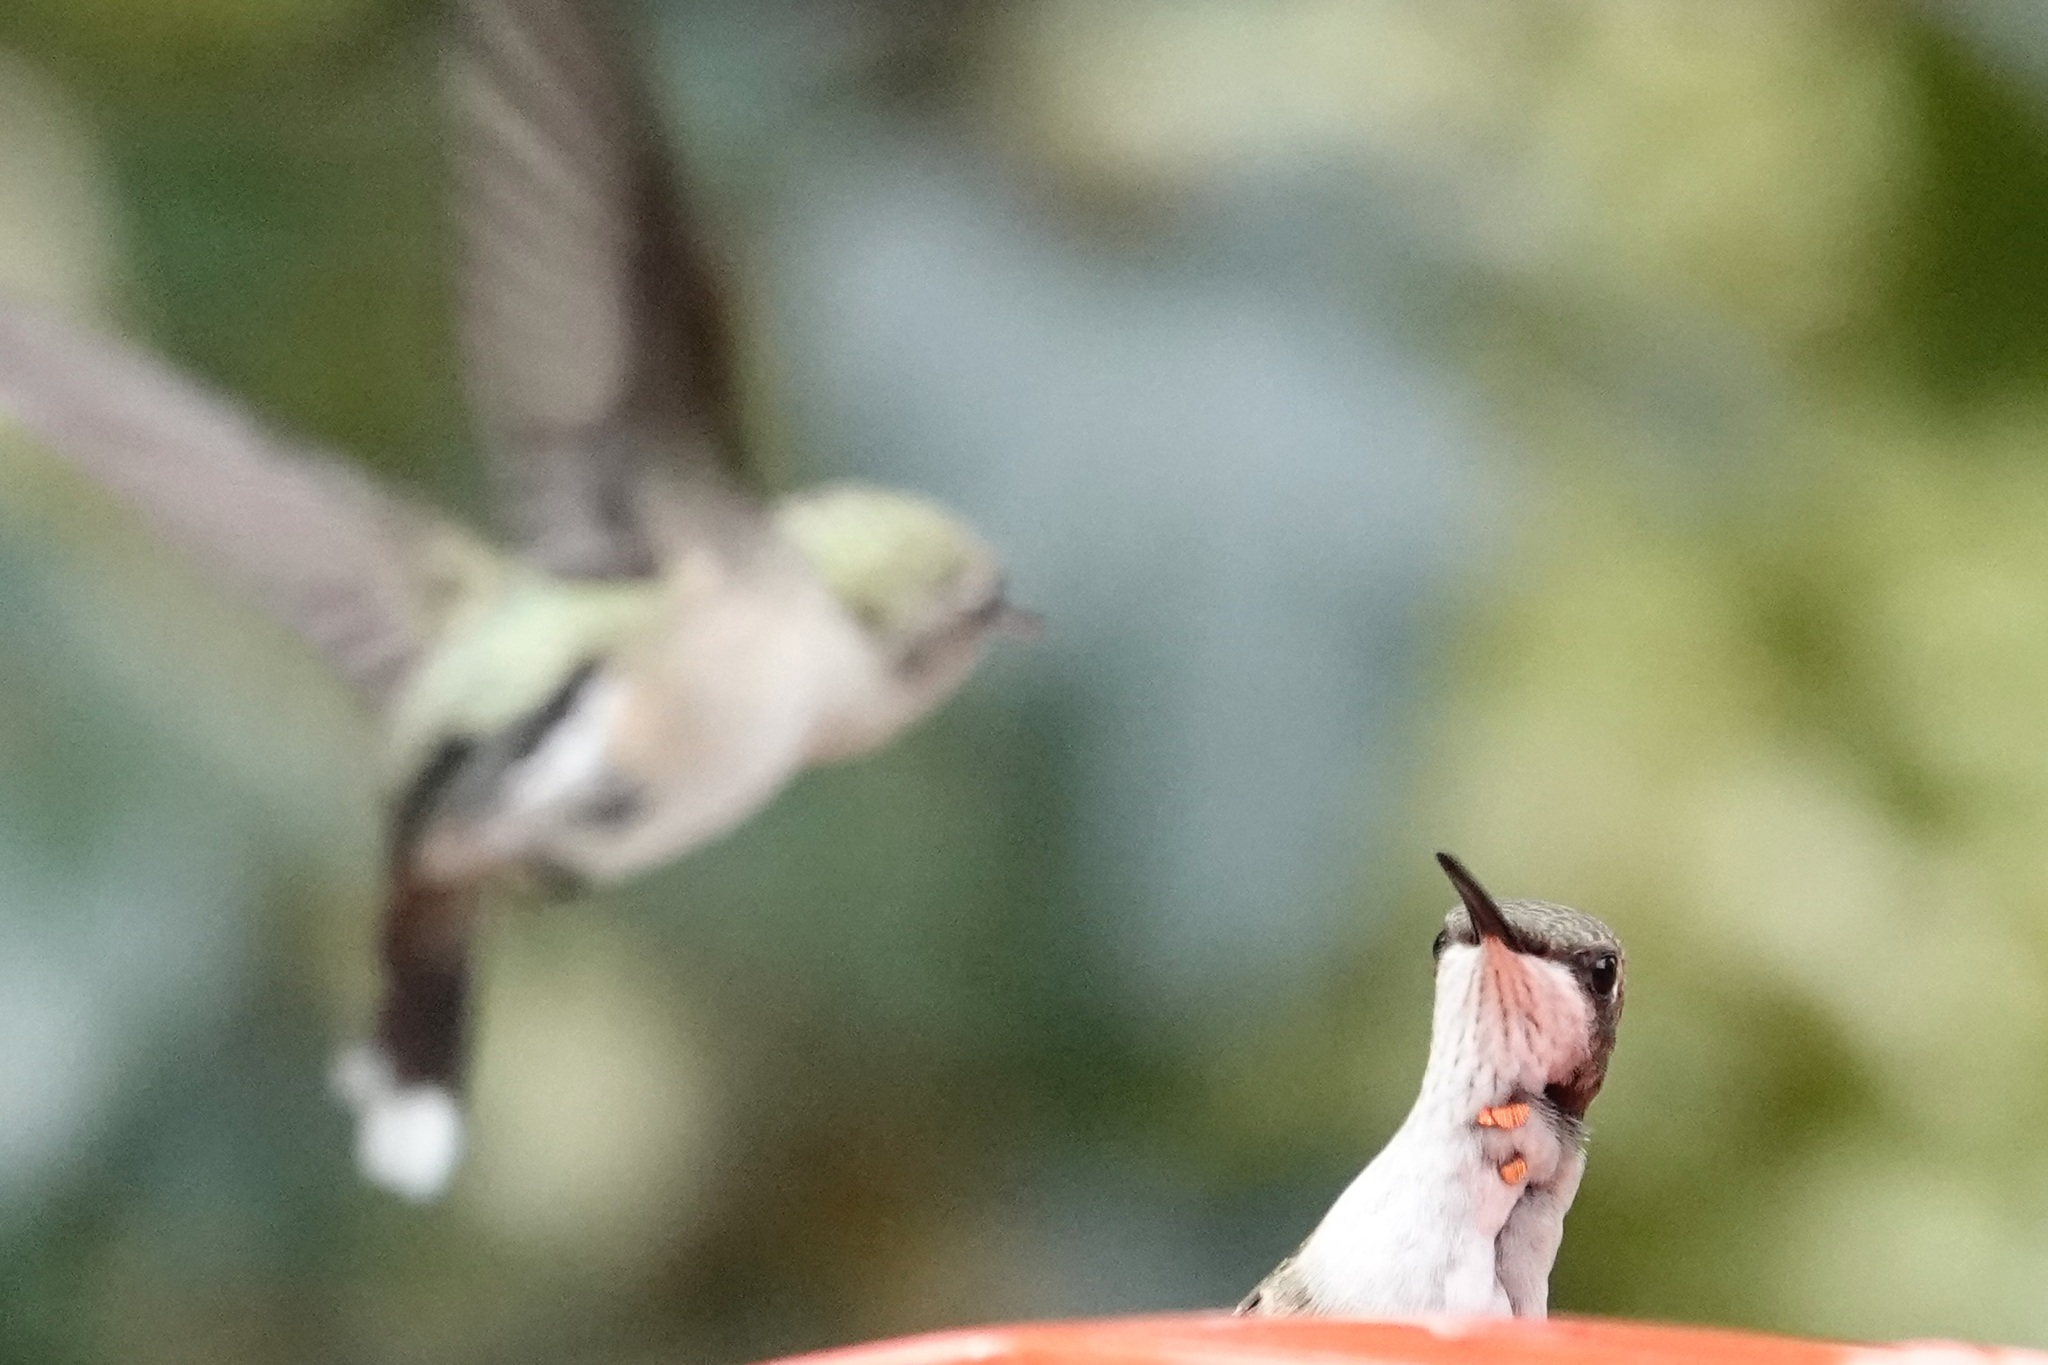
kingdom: Animalia
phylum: Chordata
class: Aves
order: Apodiformes
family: Trochilidae
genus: Archilochus
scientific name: Archilochus colubris
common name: Ruby-throated hummingbird
